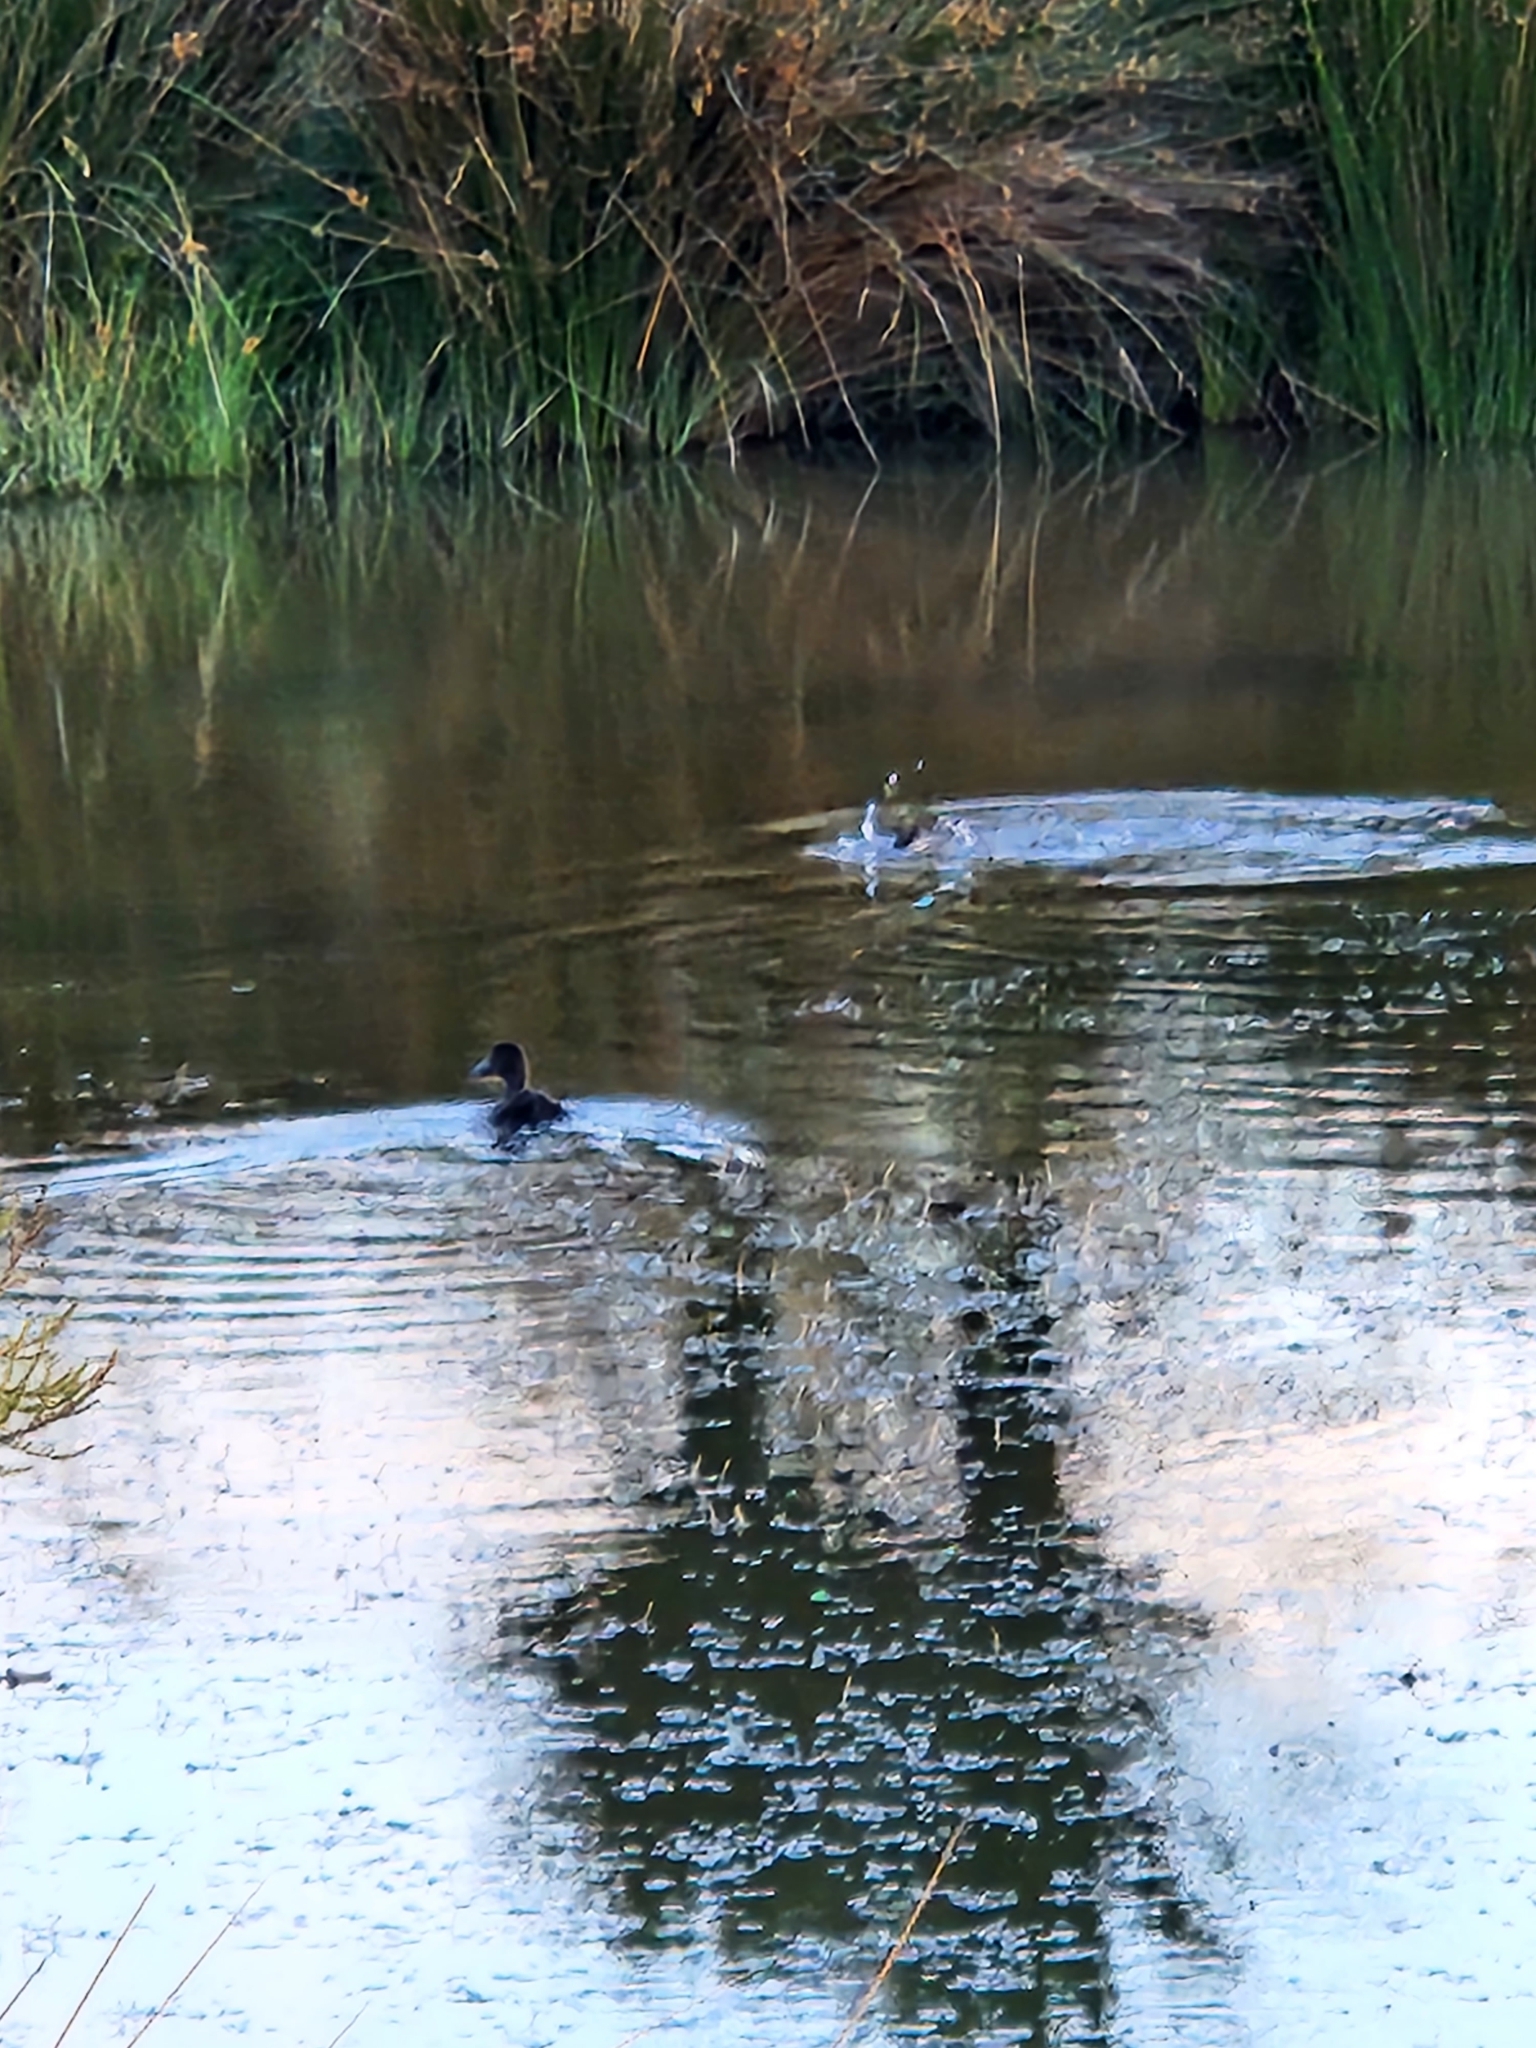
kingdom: Animalia
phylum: Chordata
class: Aves
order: Anseriformes
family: Anatidae
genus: Aythya
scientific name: Aythya novaeseelandiae
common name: New zealand scaup
